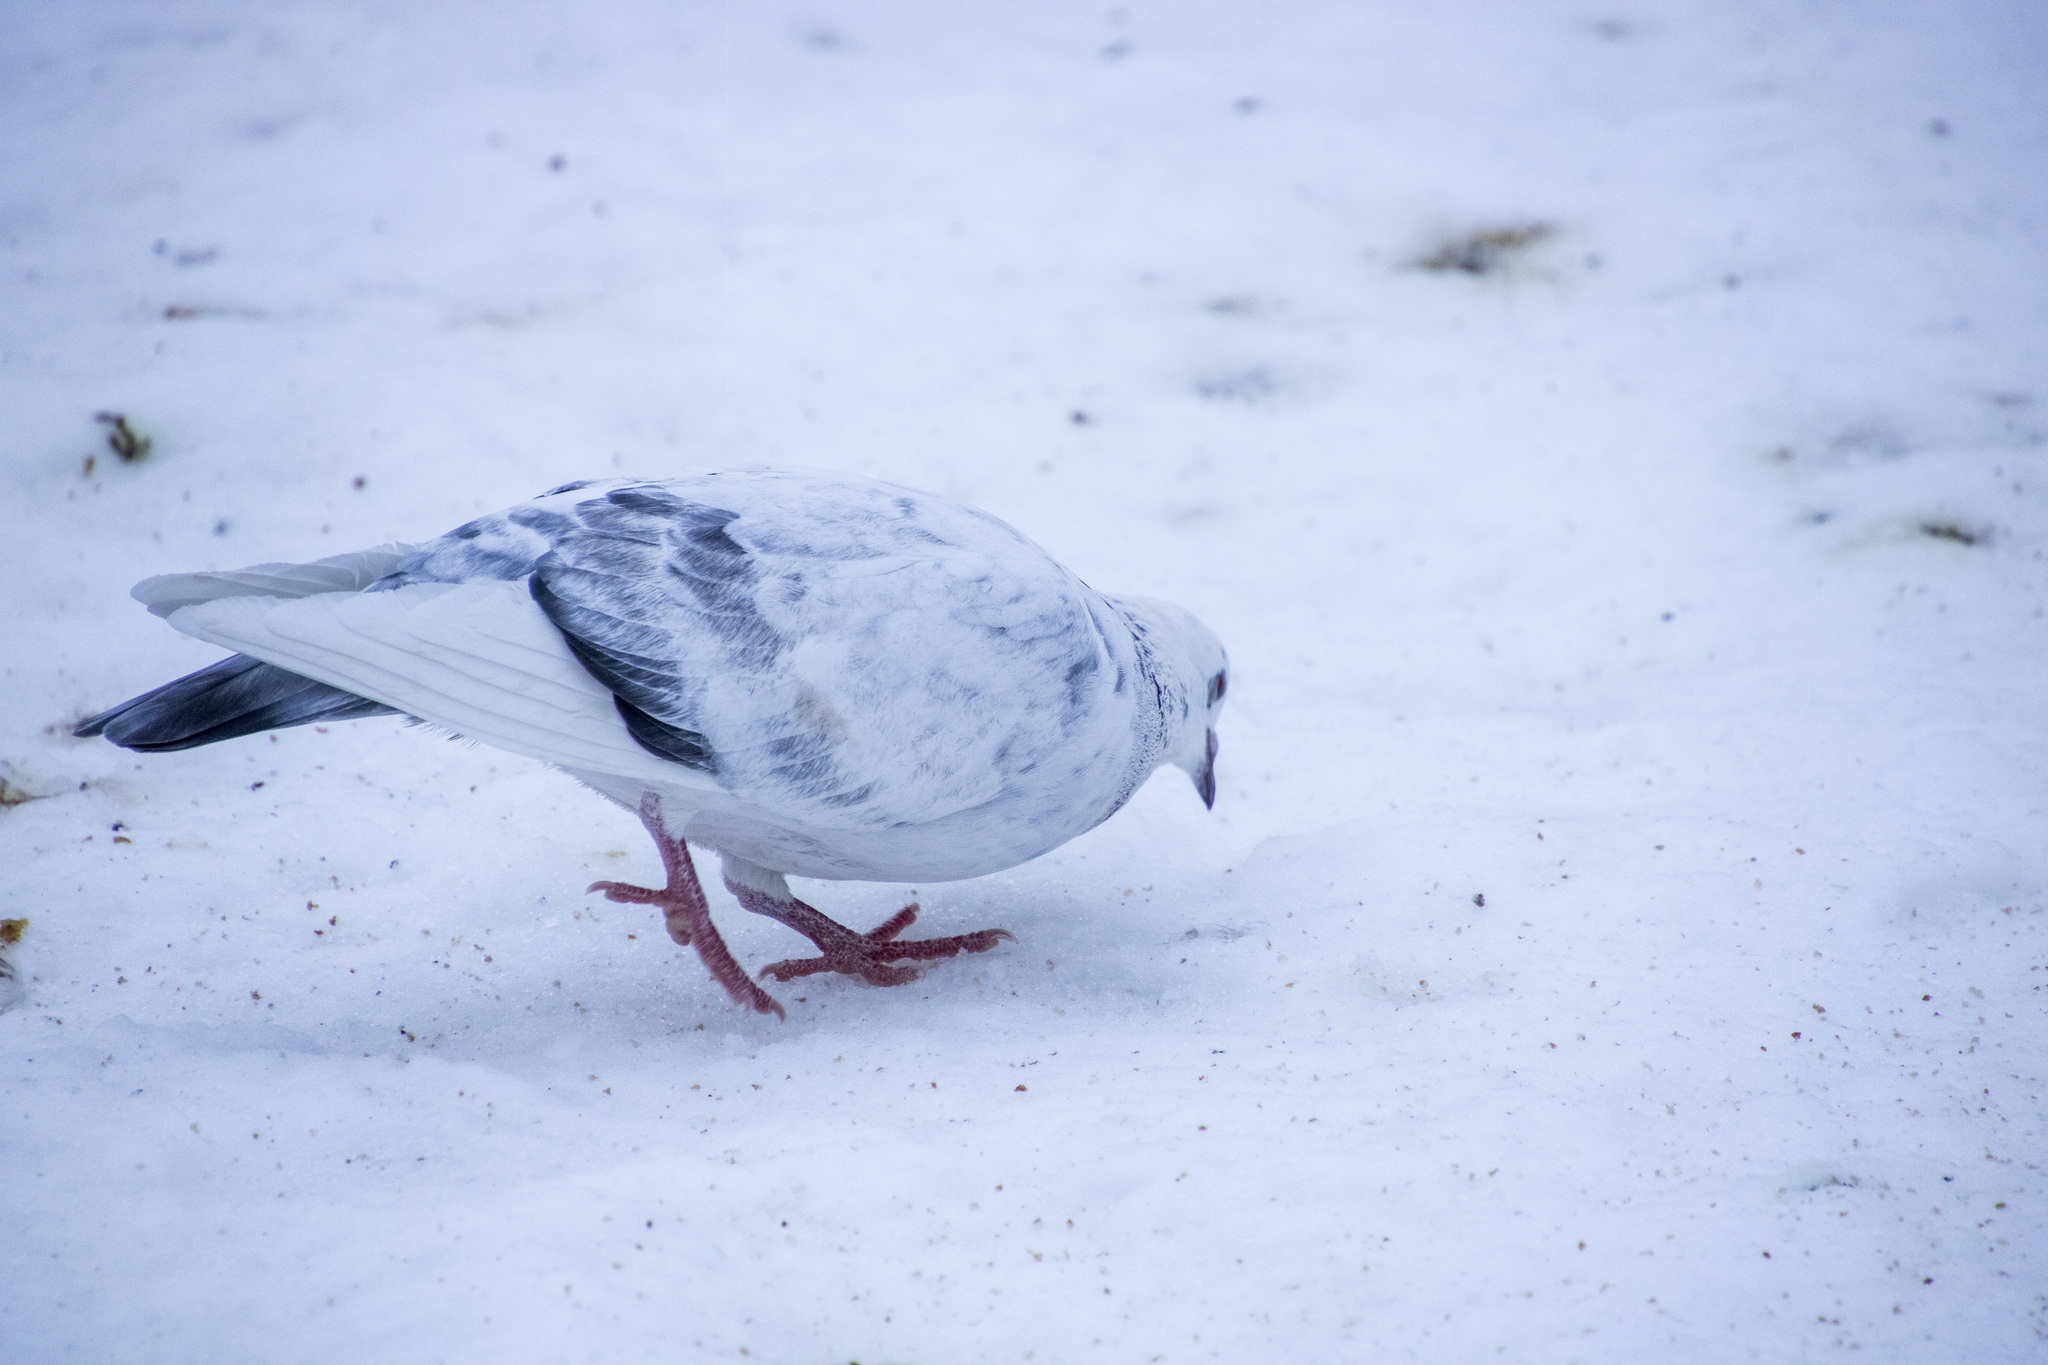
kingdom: Animalia
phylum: Chordata
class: Aves
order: Columbiformes
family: Columbidae
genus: Columba
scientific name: Columba livia
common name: Rock pigeon
